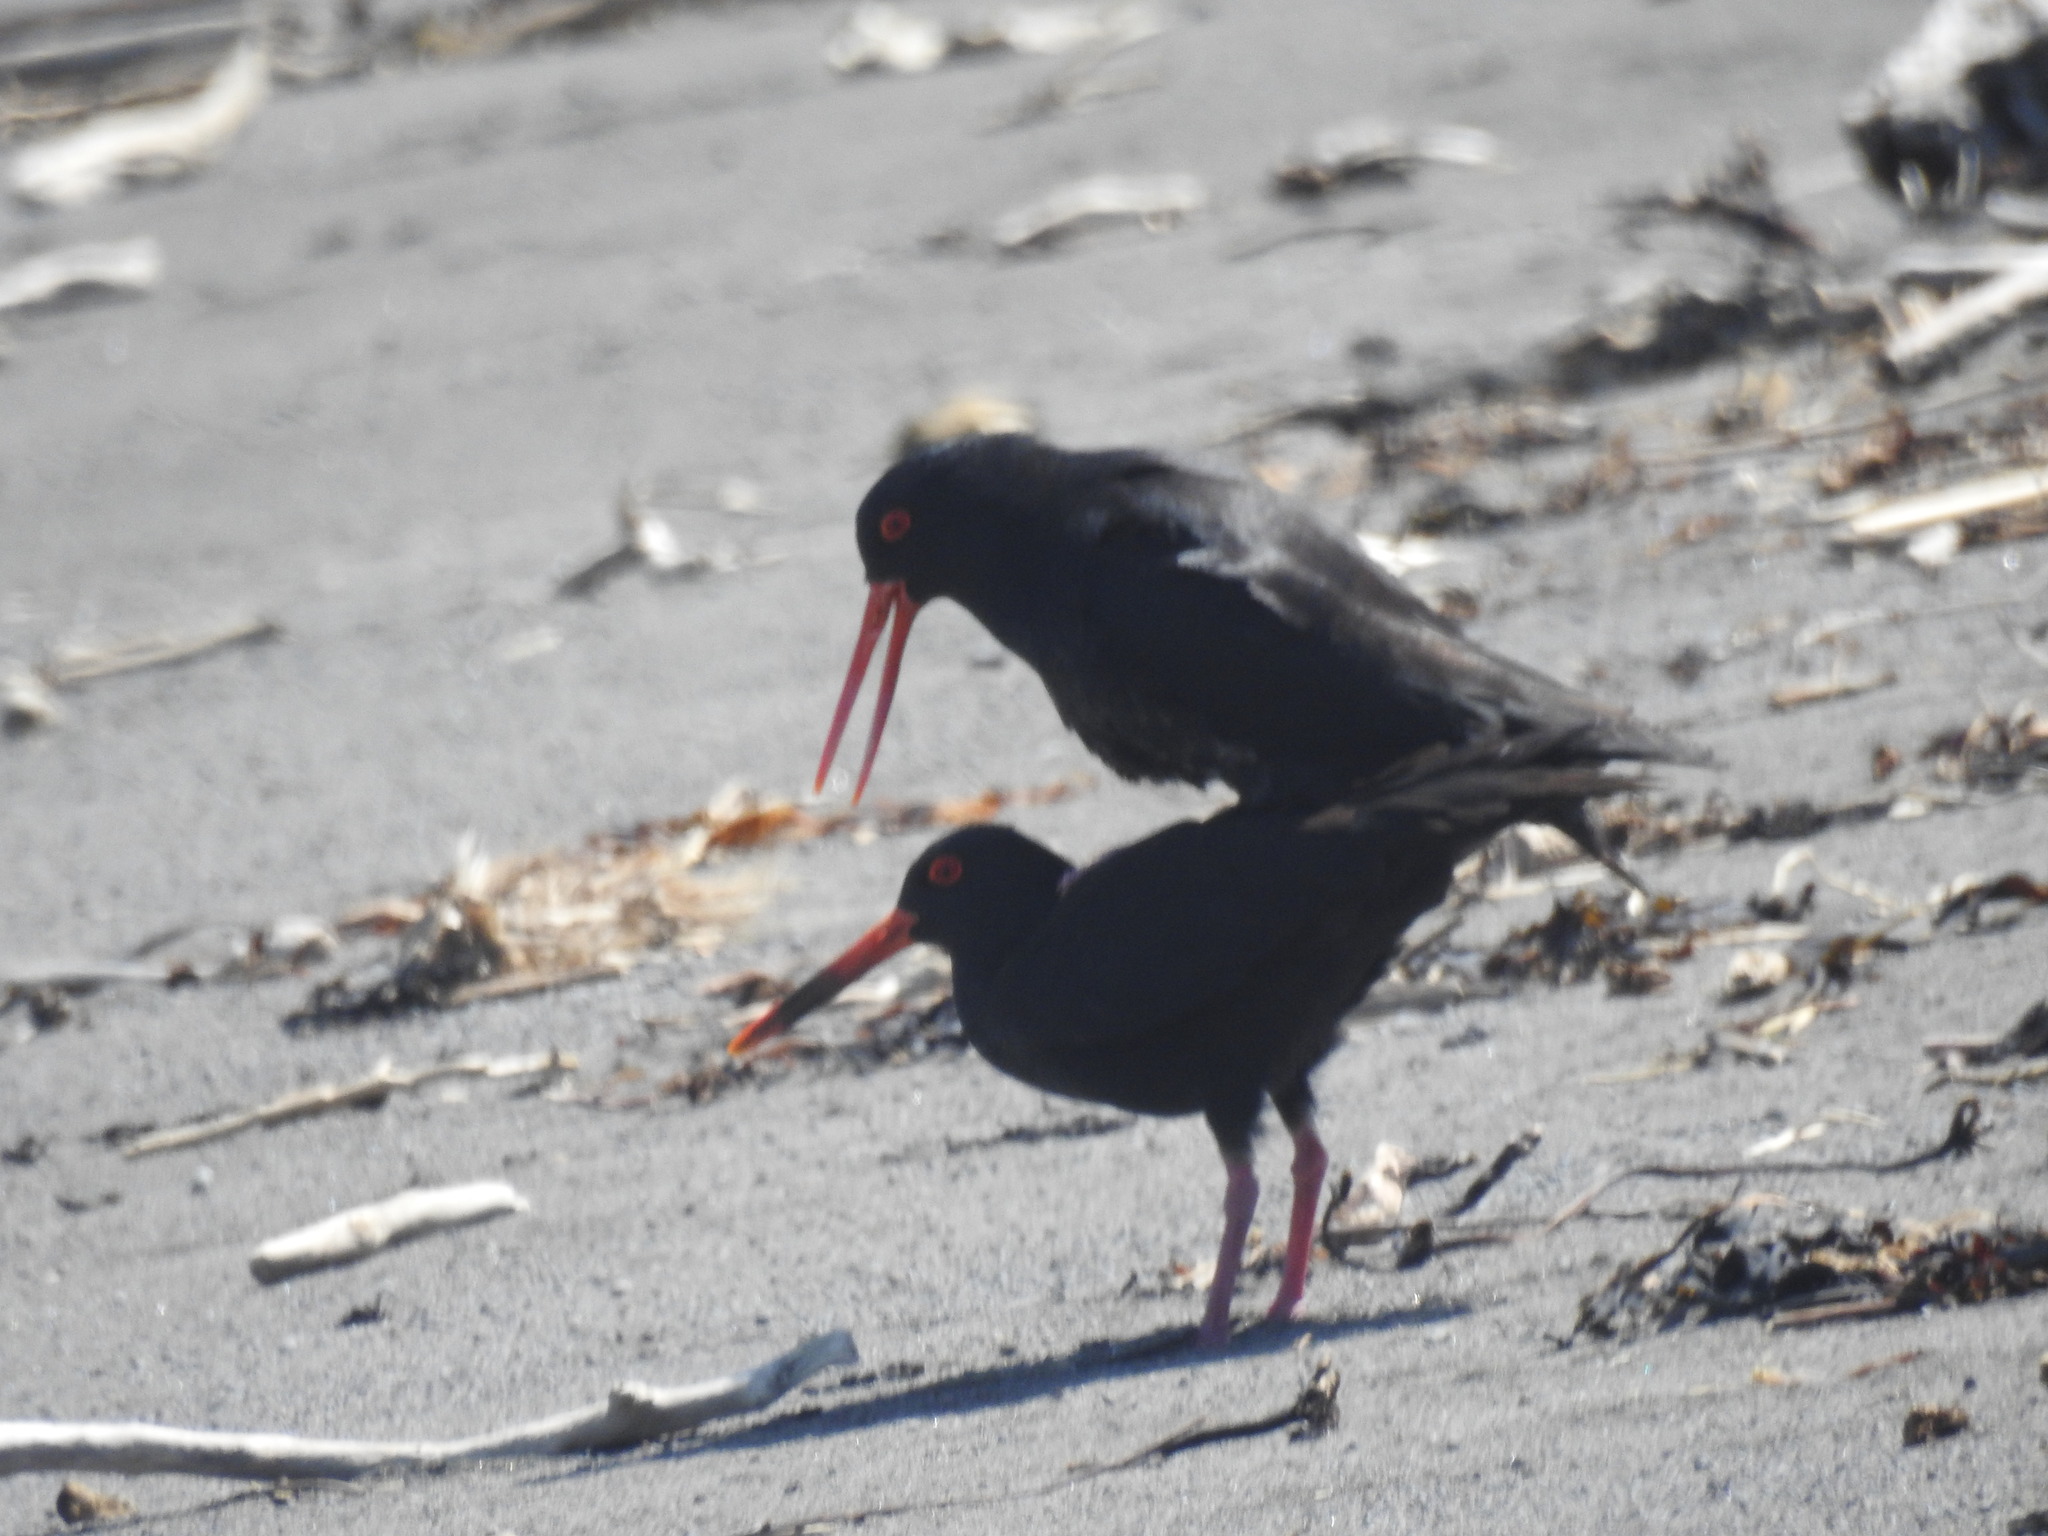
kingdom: Animalia
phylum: Chordata
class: Aves
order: Charadriiformes
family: Haematopodidae
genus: Haematopus
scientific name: Haematopus unicolor
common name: Variable oystercatcher
